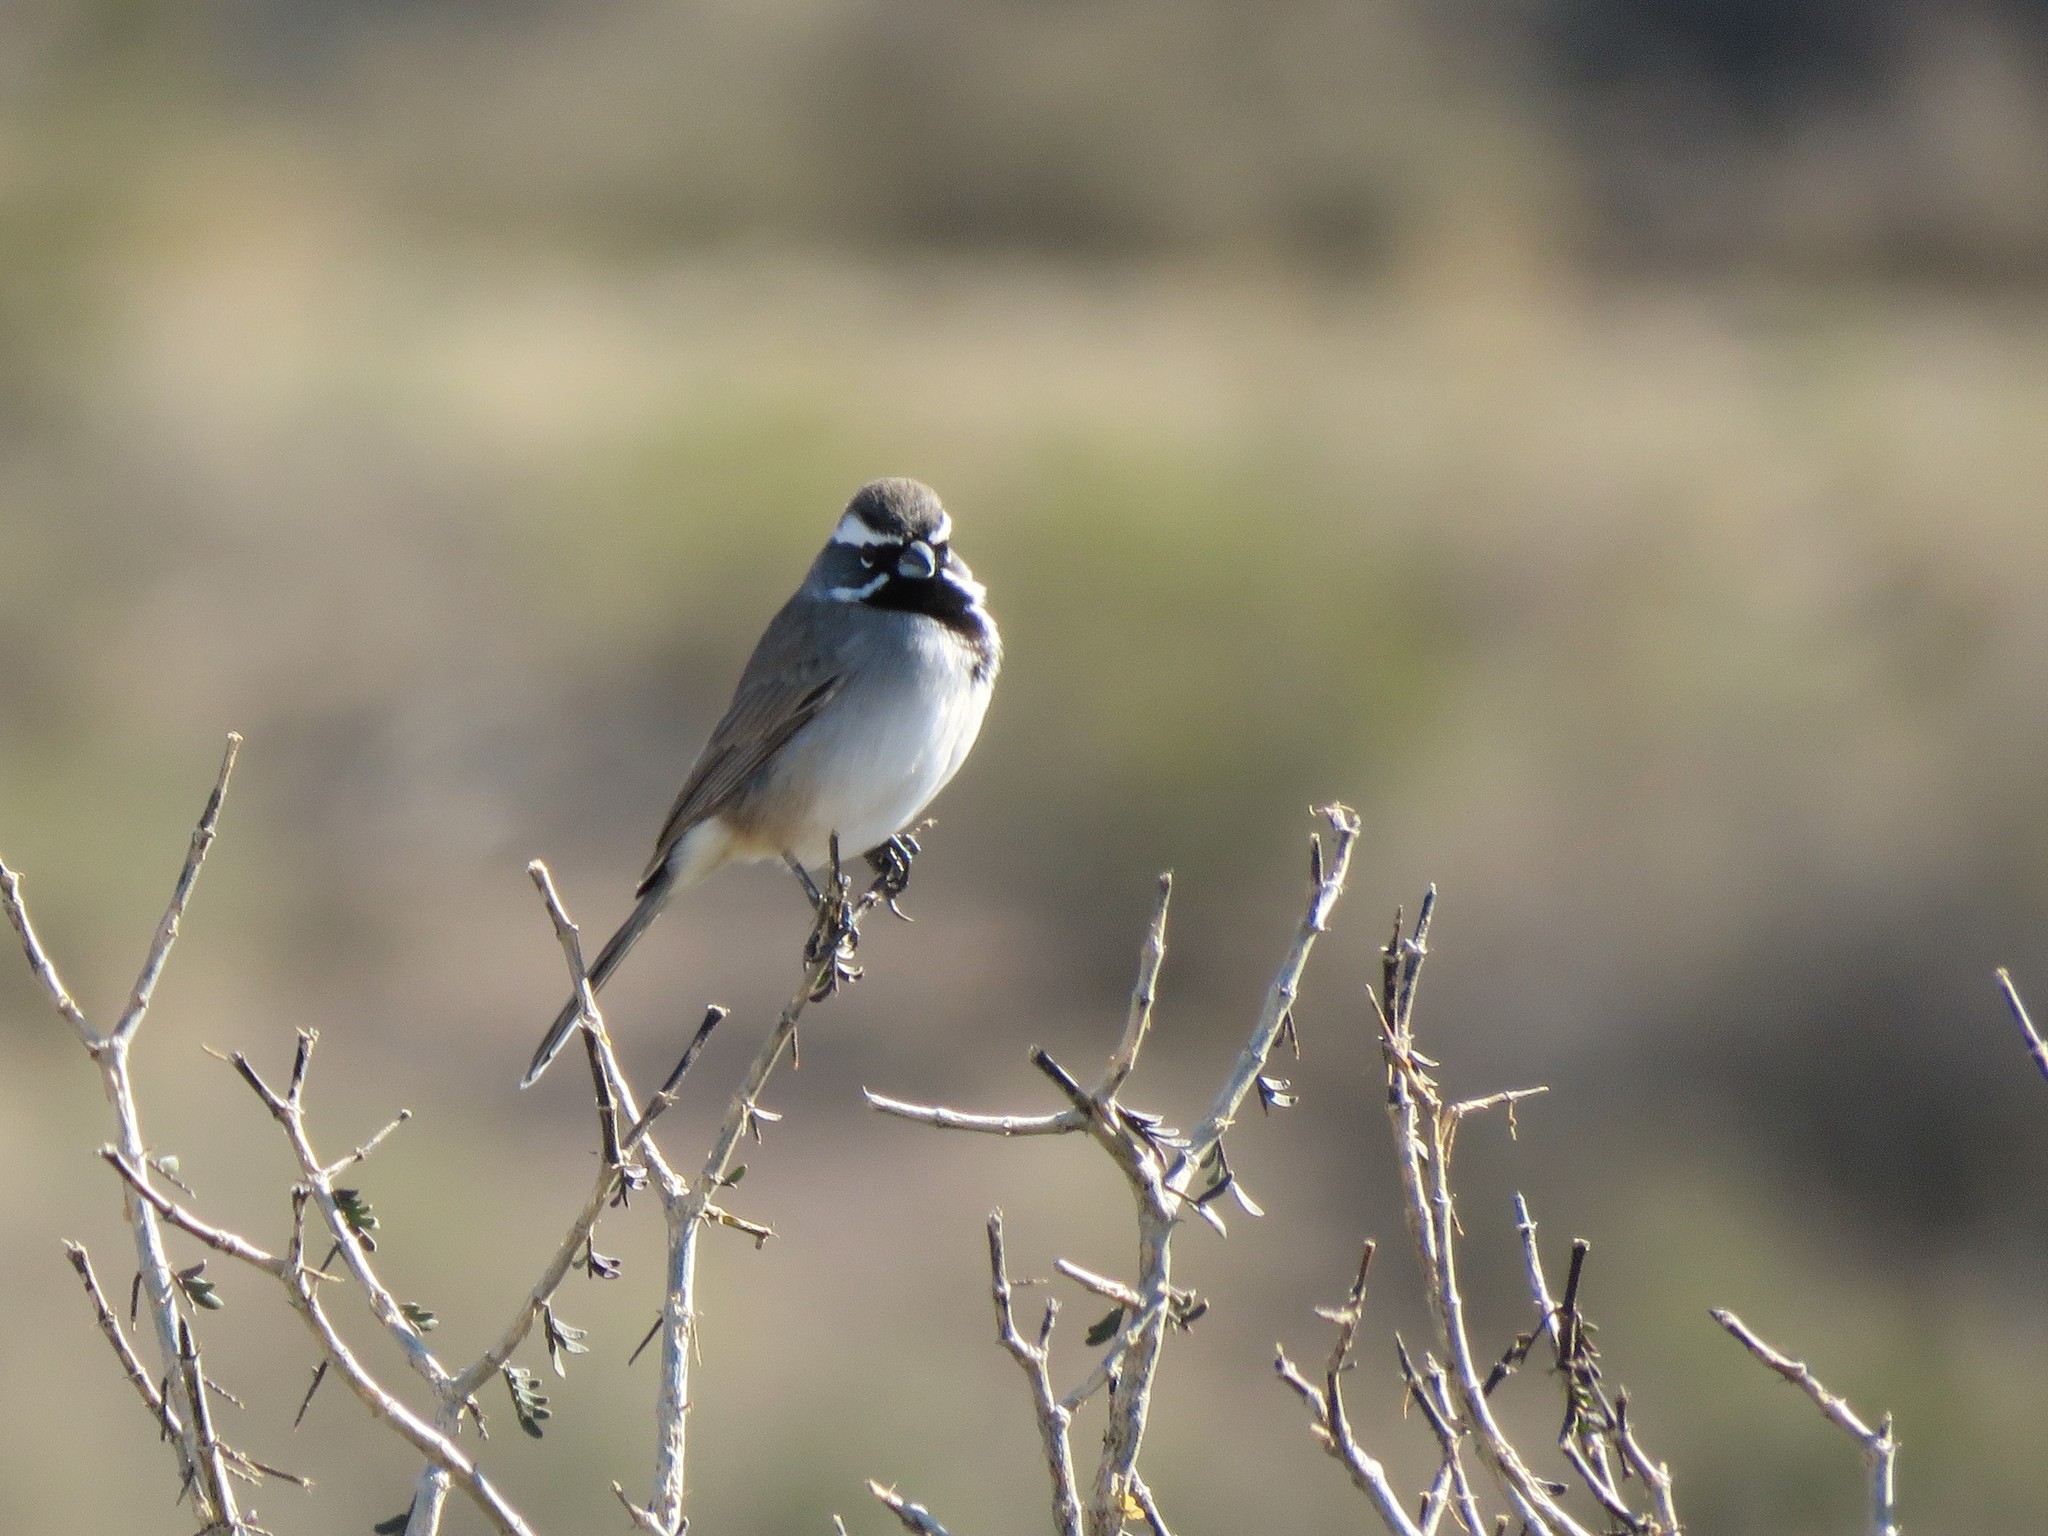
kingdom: Animalia
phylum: Chordata
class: Aves
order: Passeriformes
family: Passerellidae
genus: Amphispiza
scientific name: Amphispiza bilineata
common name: Black-throated sparrow
